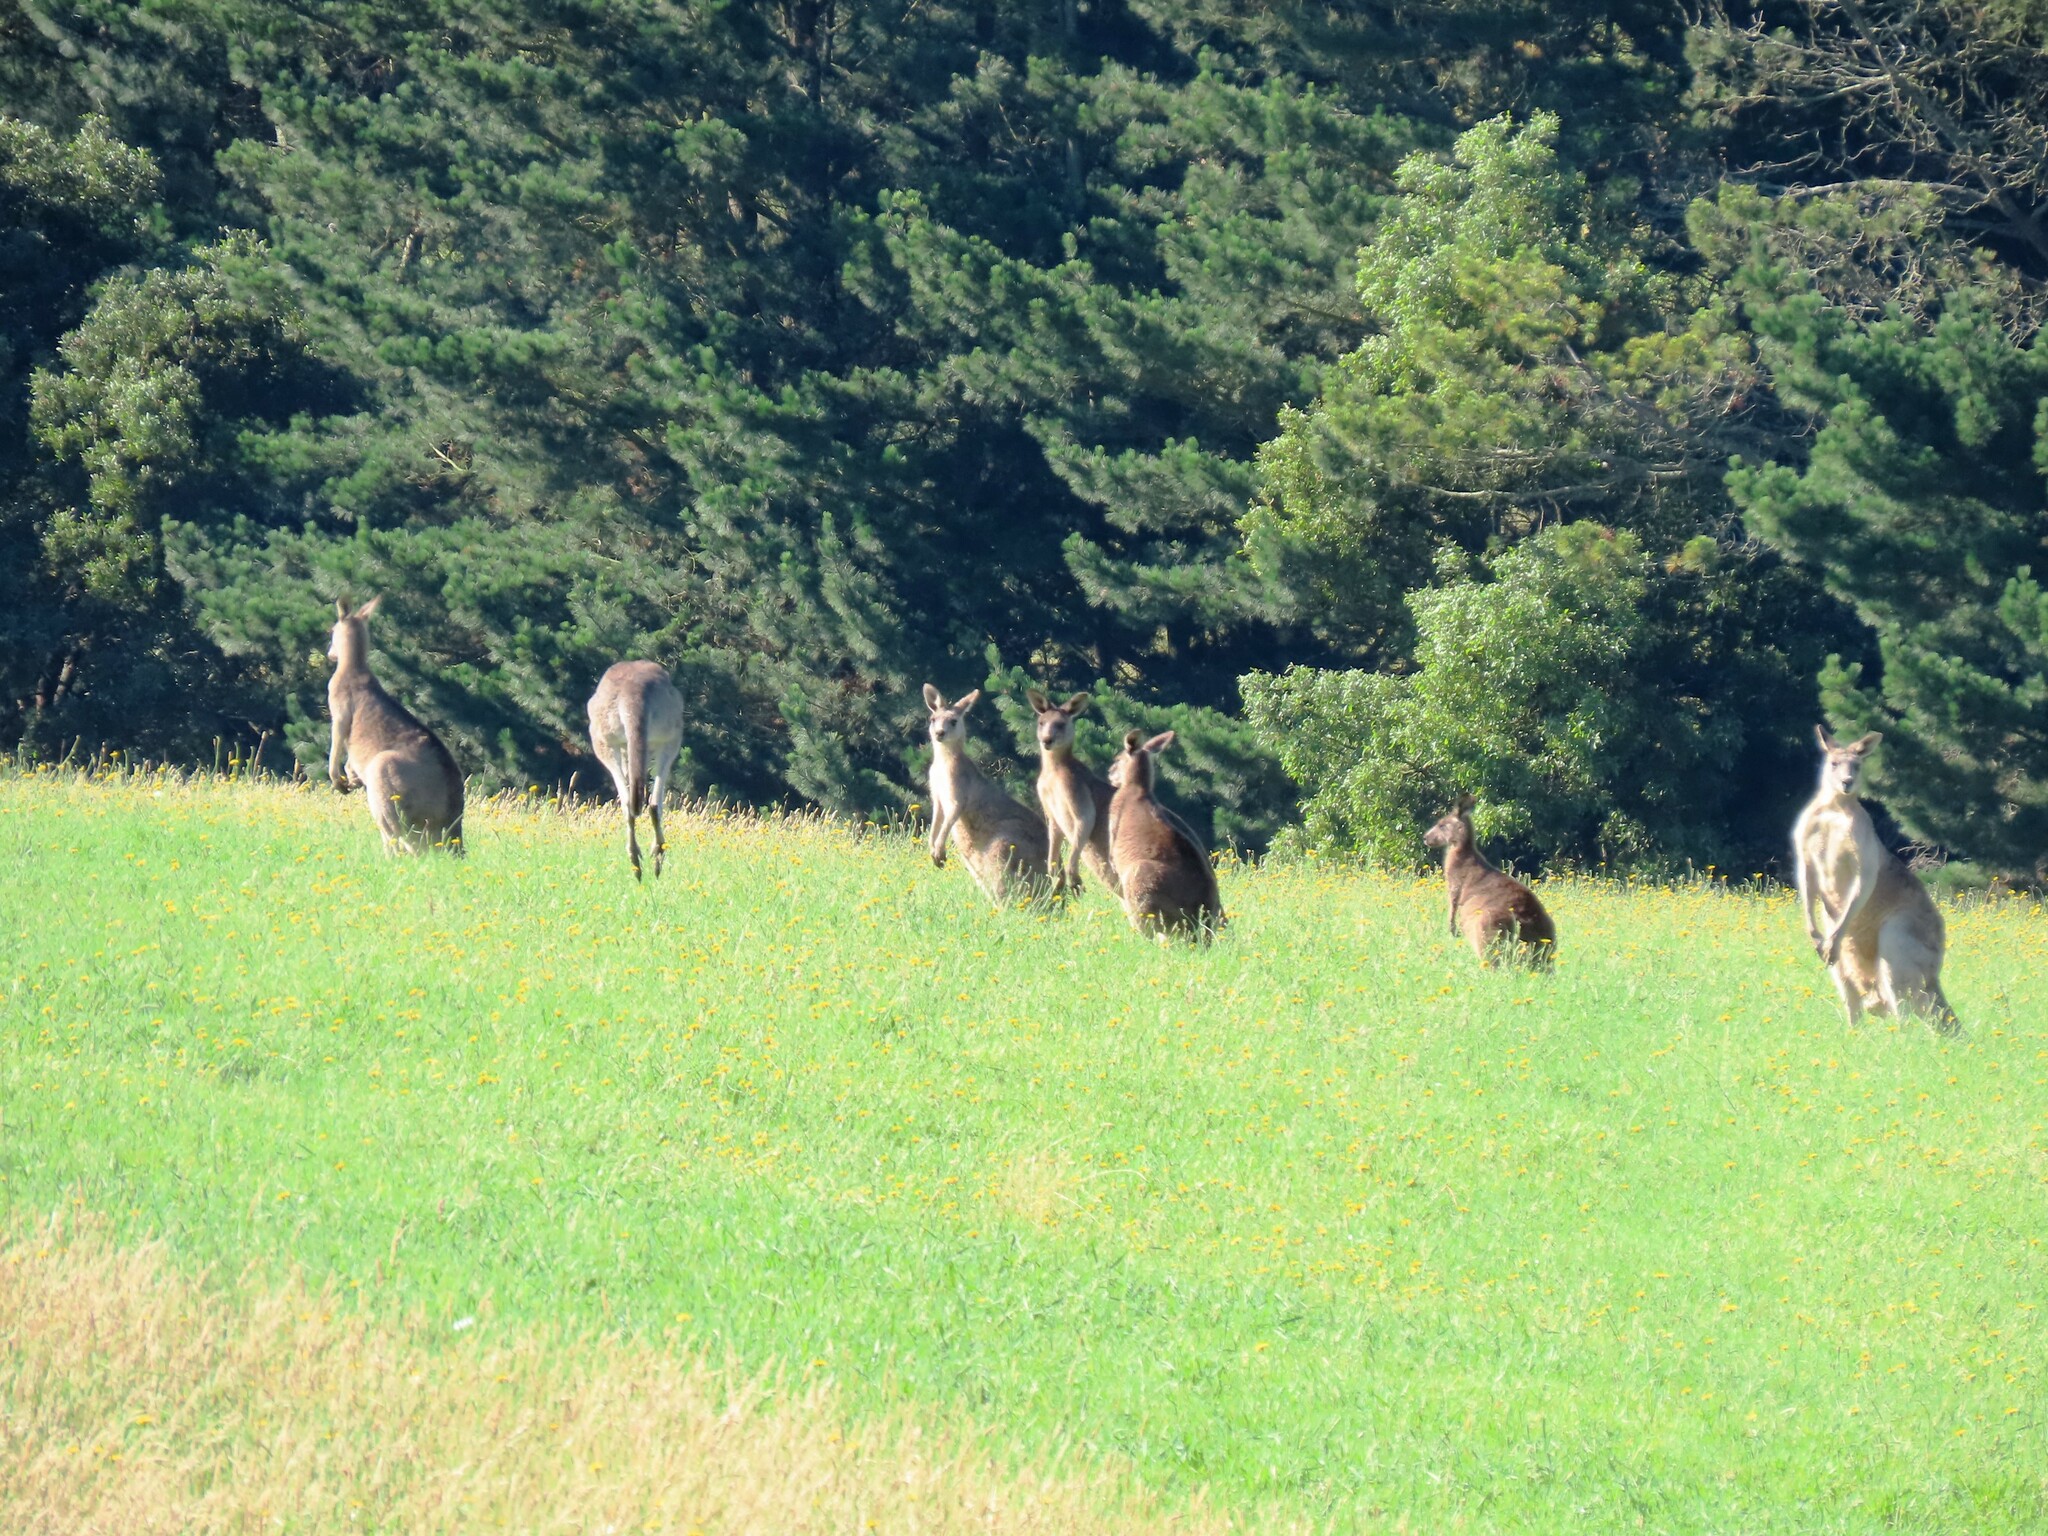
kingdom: Animalia
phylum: Chordata
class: Mammalia
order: Diprotodontia
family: Macropodidae
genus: Macropus
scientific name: Macropus giganteus
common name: Eastern grey kangaroo
